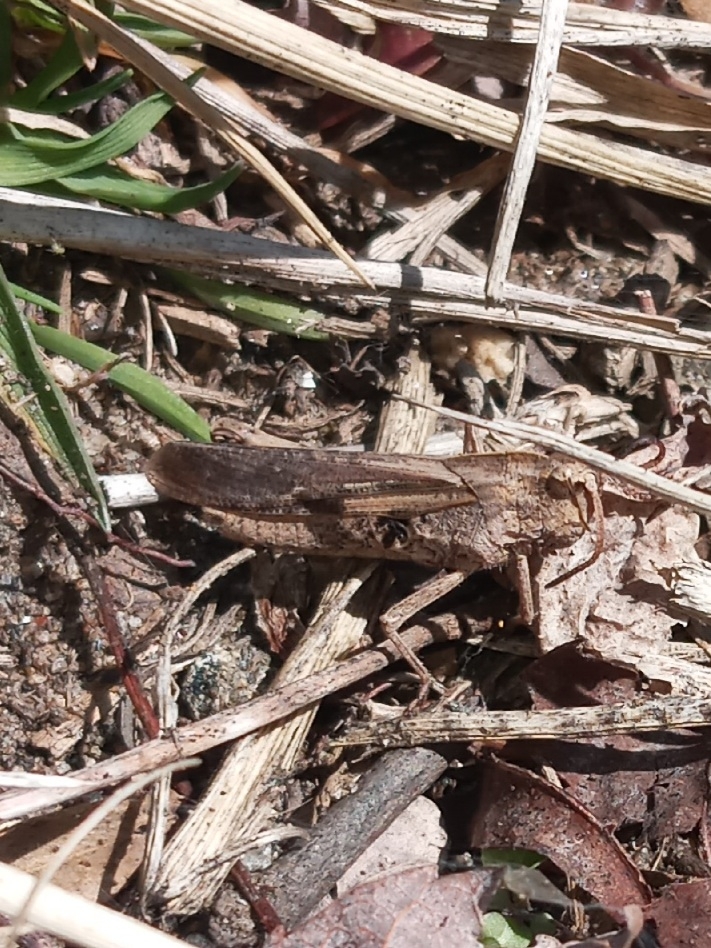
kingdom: Animalia
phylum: Arthropoda
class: Insecta
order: Orthoptera
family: Acrididae
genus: Chortophaga
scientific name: Chortophaga viridifasciata
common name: Green-striped grasshopper
